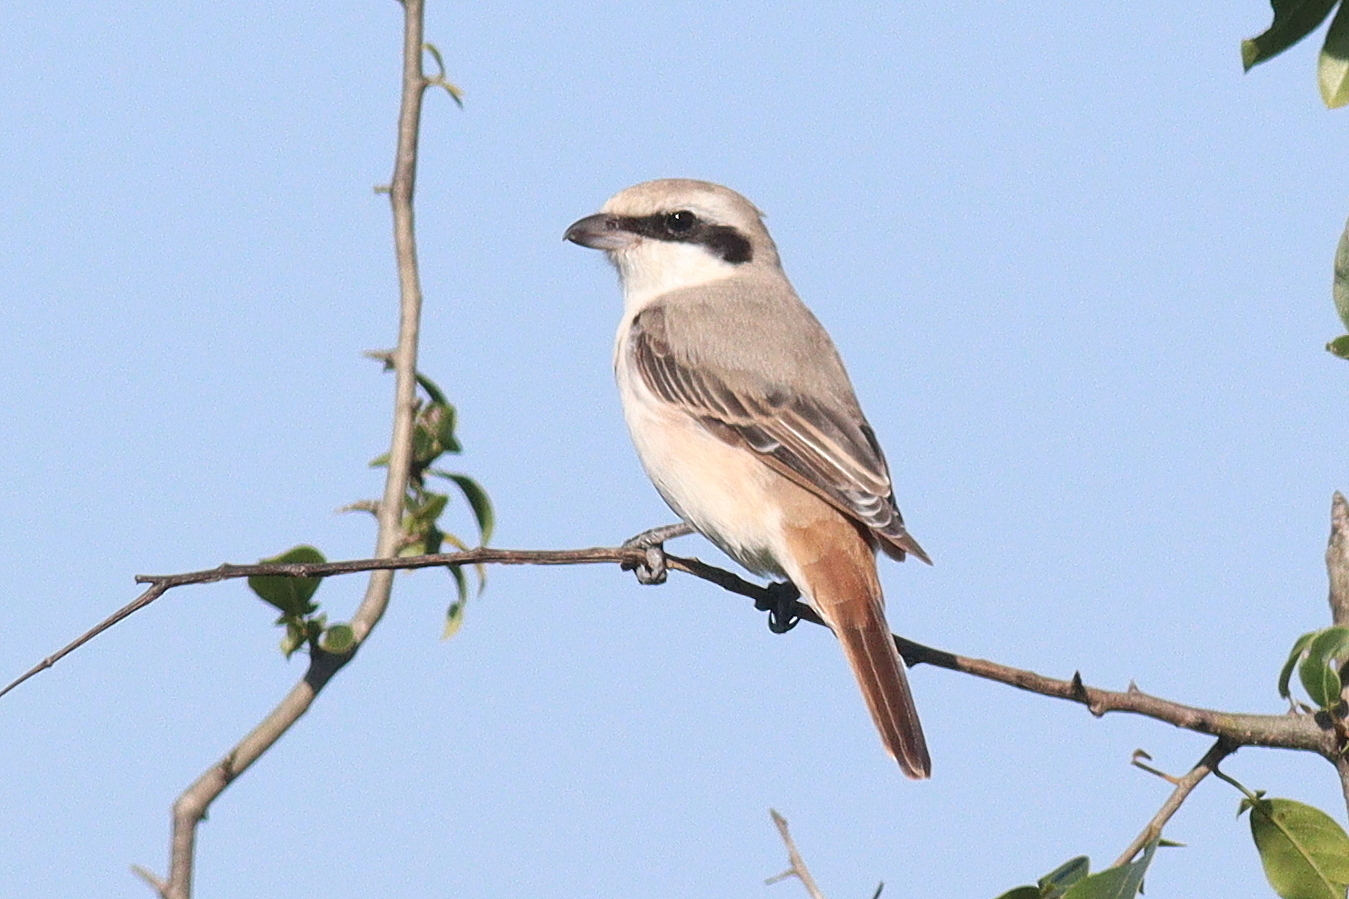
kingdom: Animalia
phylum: Chordata
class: Aves
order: Passeriformes
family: Laniidae
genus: Lanius
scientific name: Lanius isabellinus
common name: Isabelline shrike
